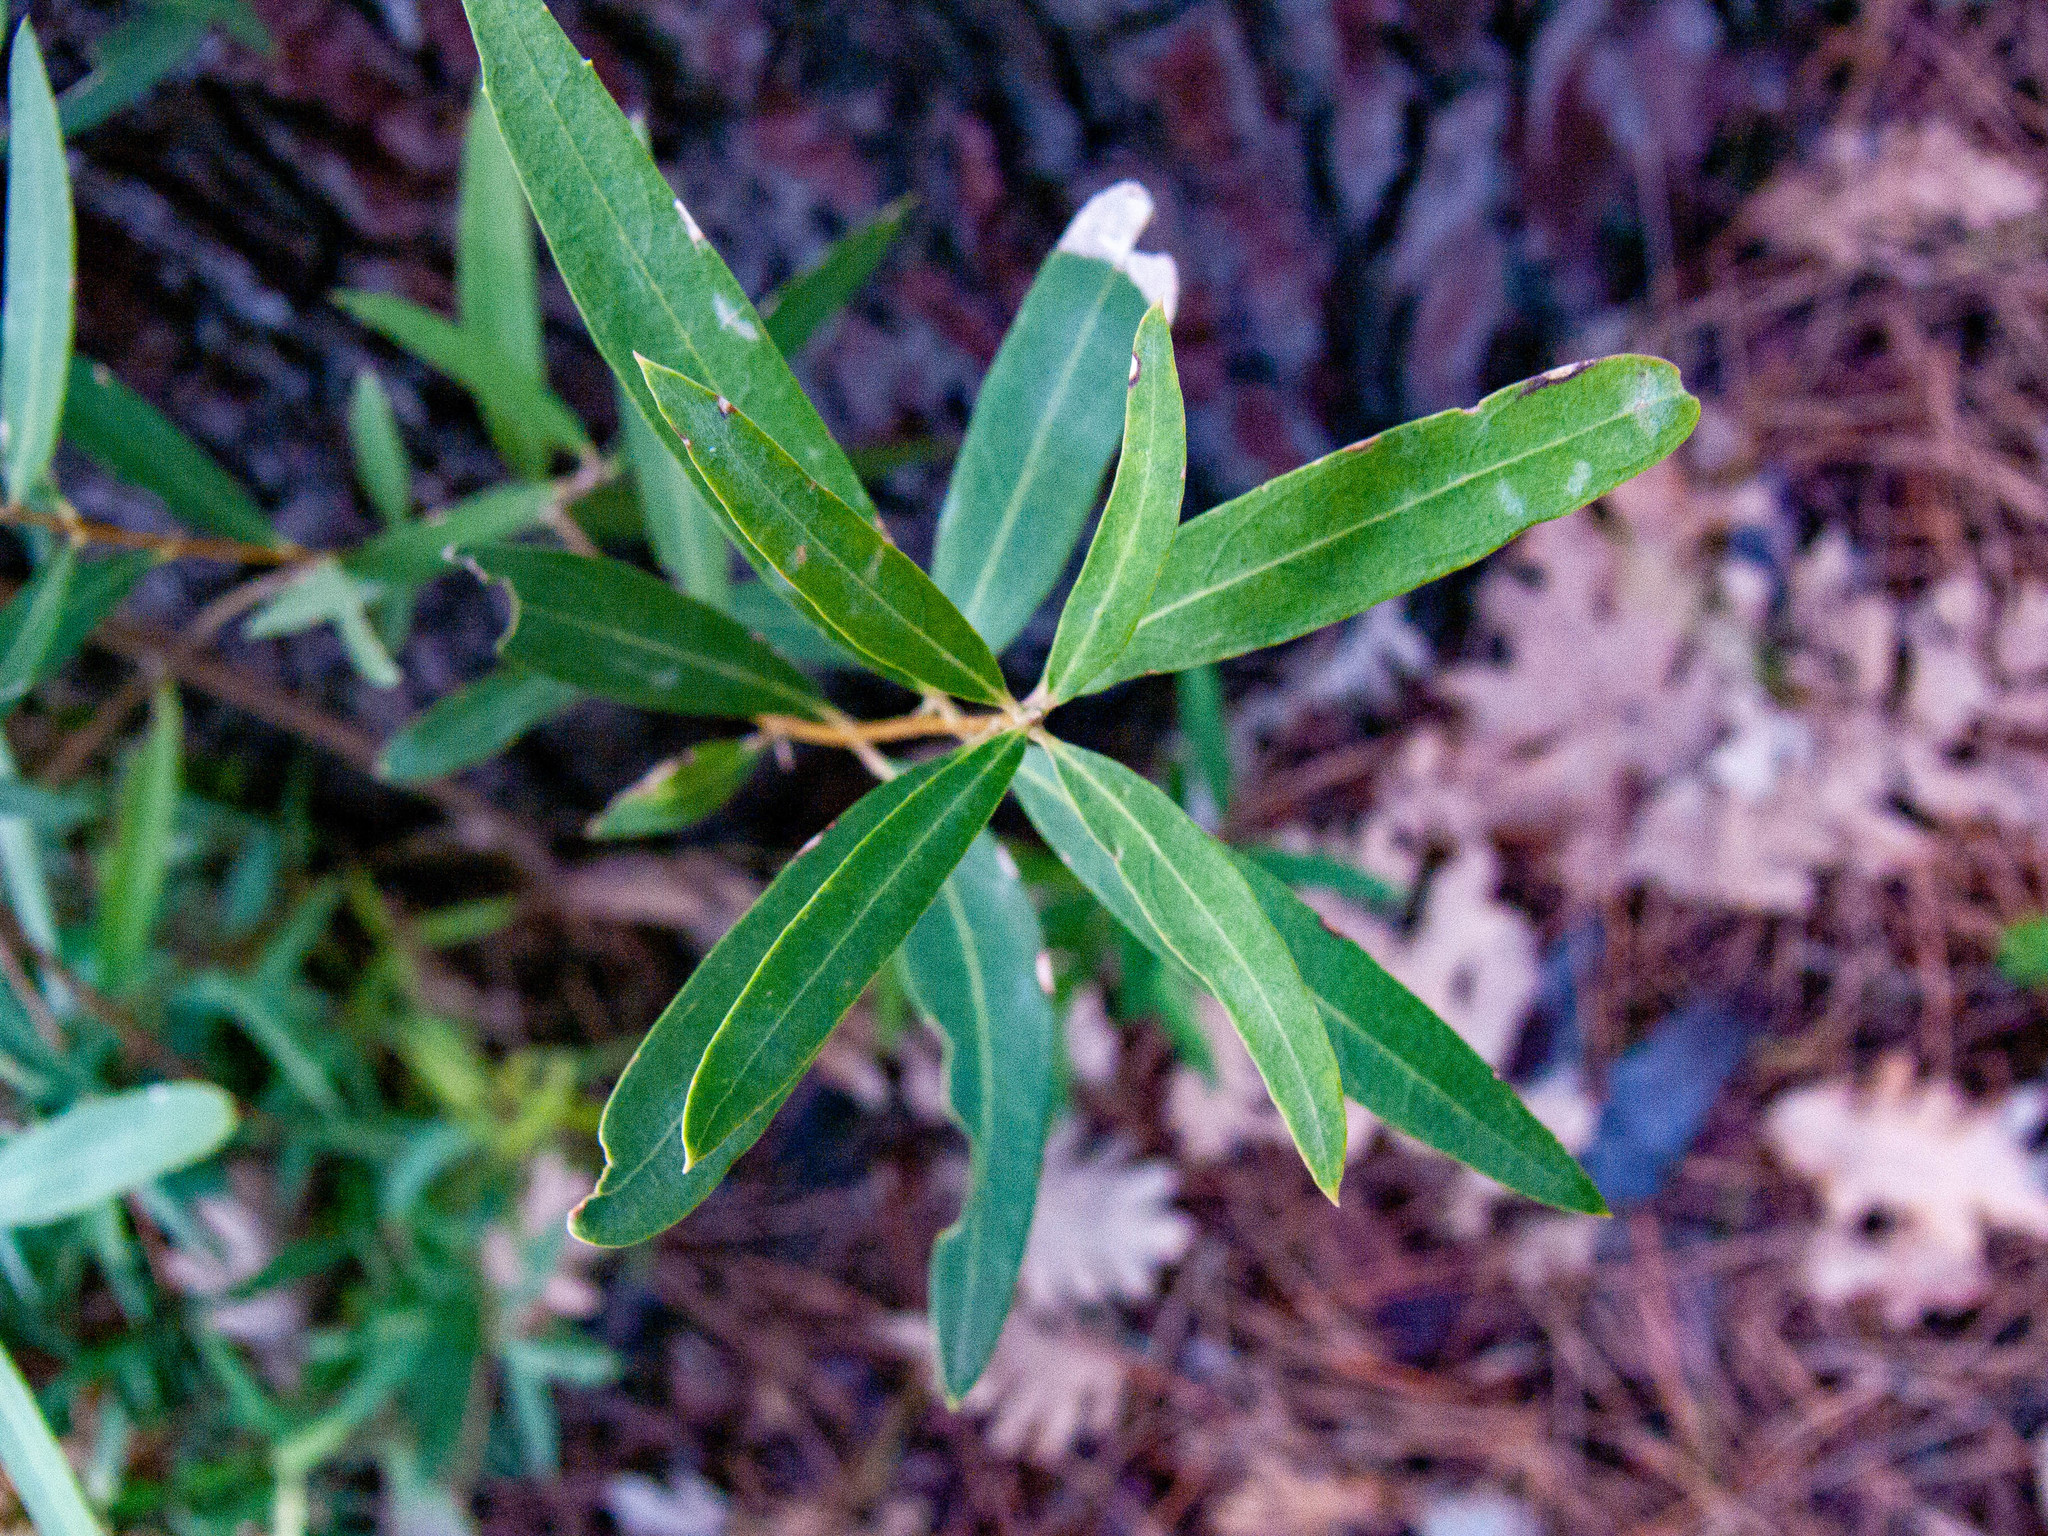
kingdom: Plantae
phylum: Tracheophyta
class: Magnoliopsida
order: Lamiales
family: Oleaceae
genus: Phillyrea
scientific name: Phillyrea angustifolia
